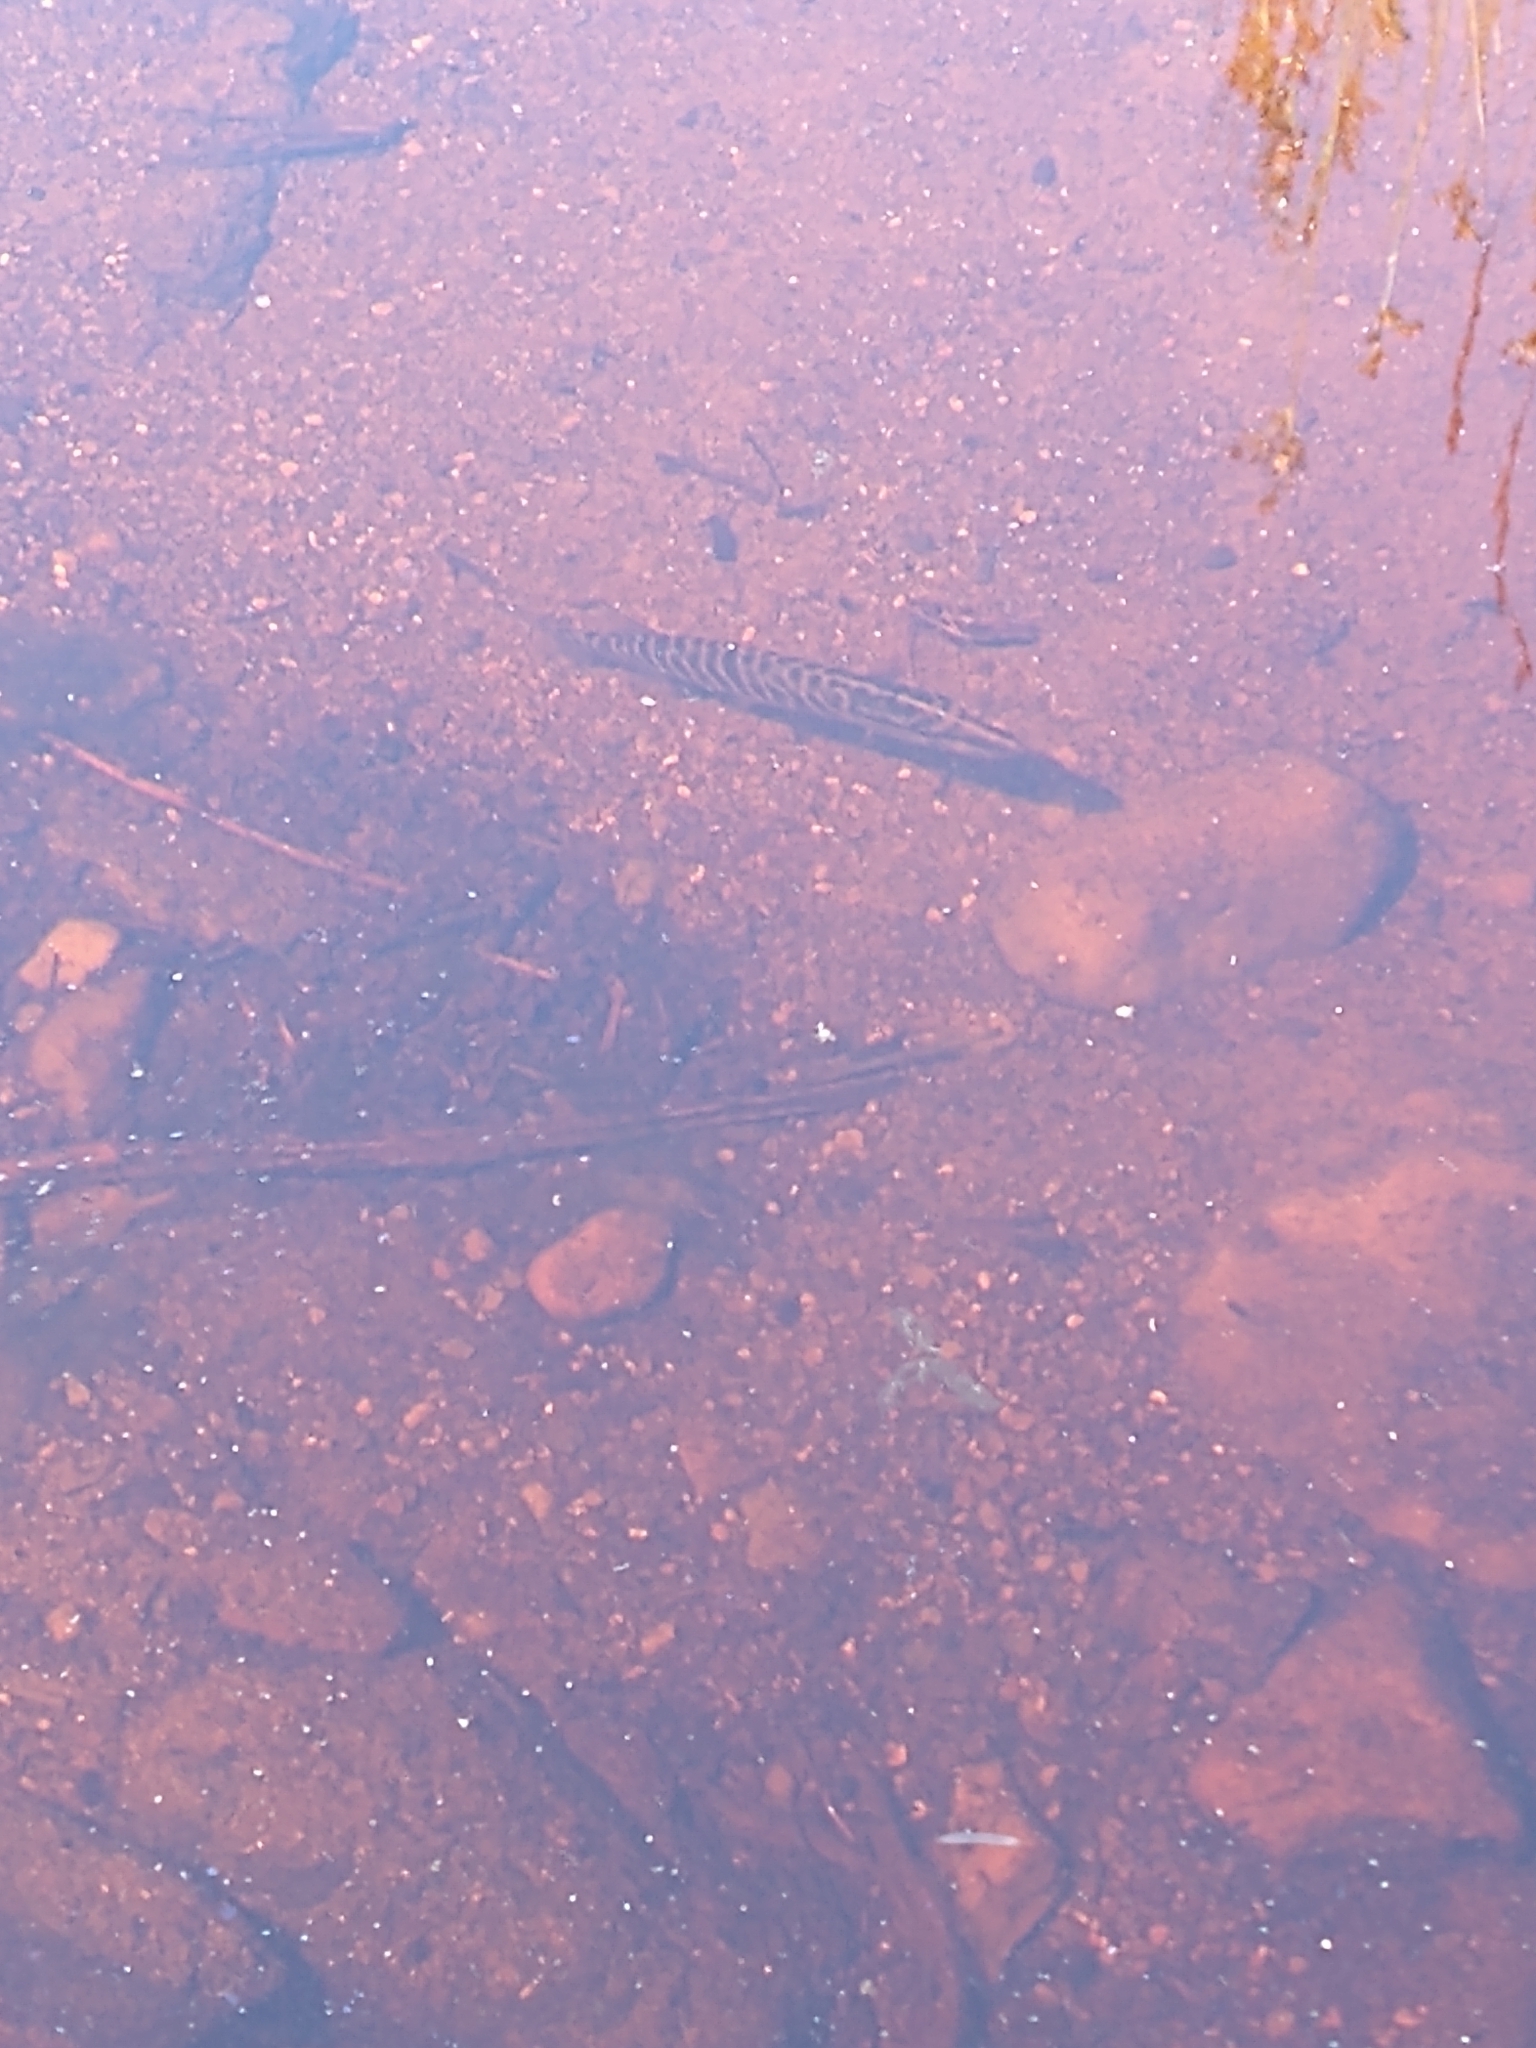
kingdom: Animalia
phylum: Chordata
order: Esociformes
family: Esocidae
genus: Esox
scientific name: Esox lucius
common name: Northern pike
